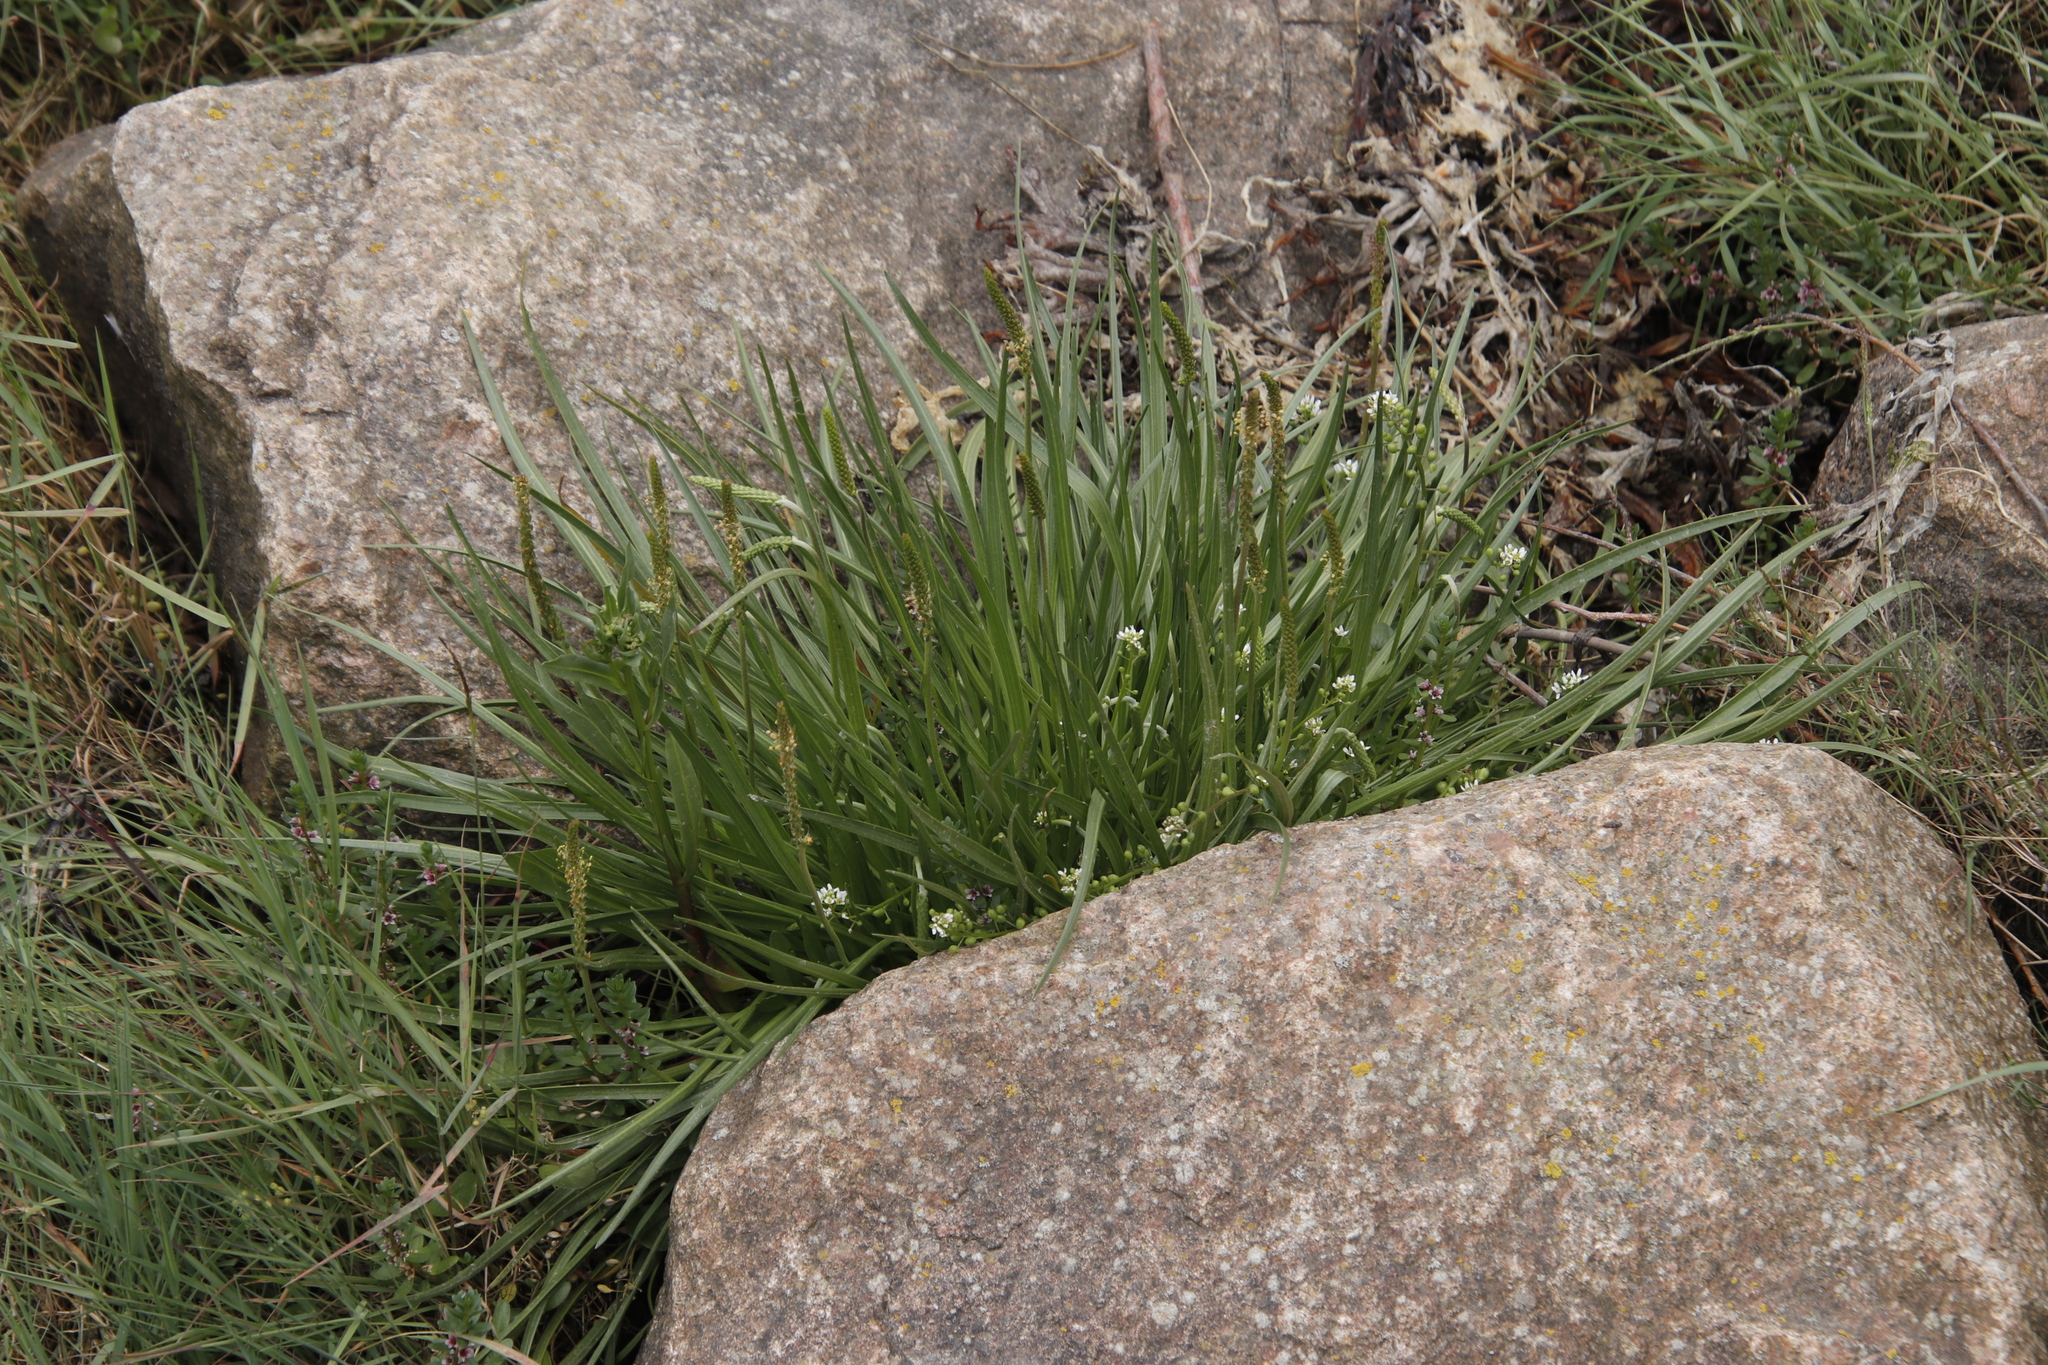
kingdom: Plantae
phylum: Tracheophyta
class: Magnoliopsida
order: Lamiales
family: Plantaginaceae
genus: Plantago
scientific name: Plantago maritima
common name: Sea plantain
